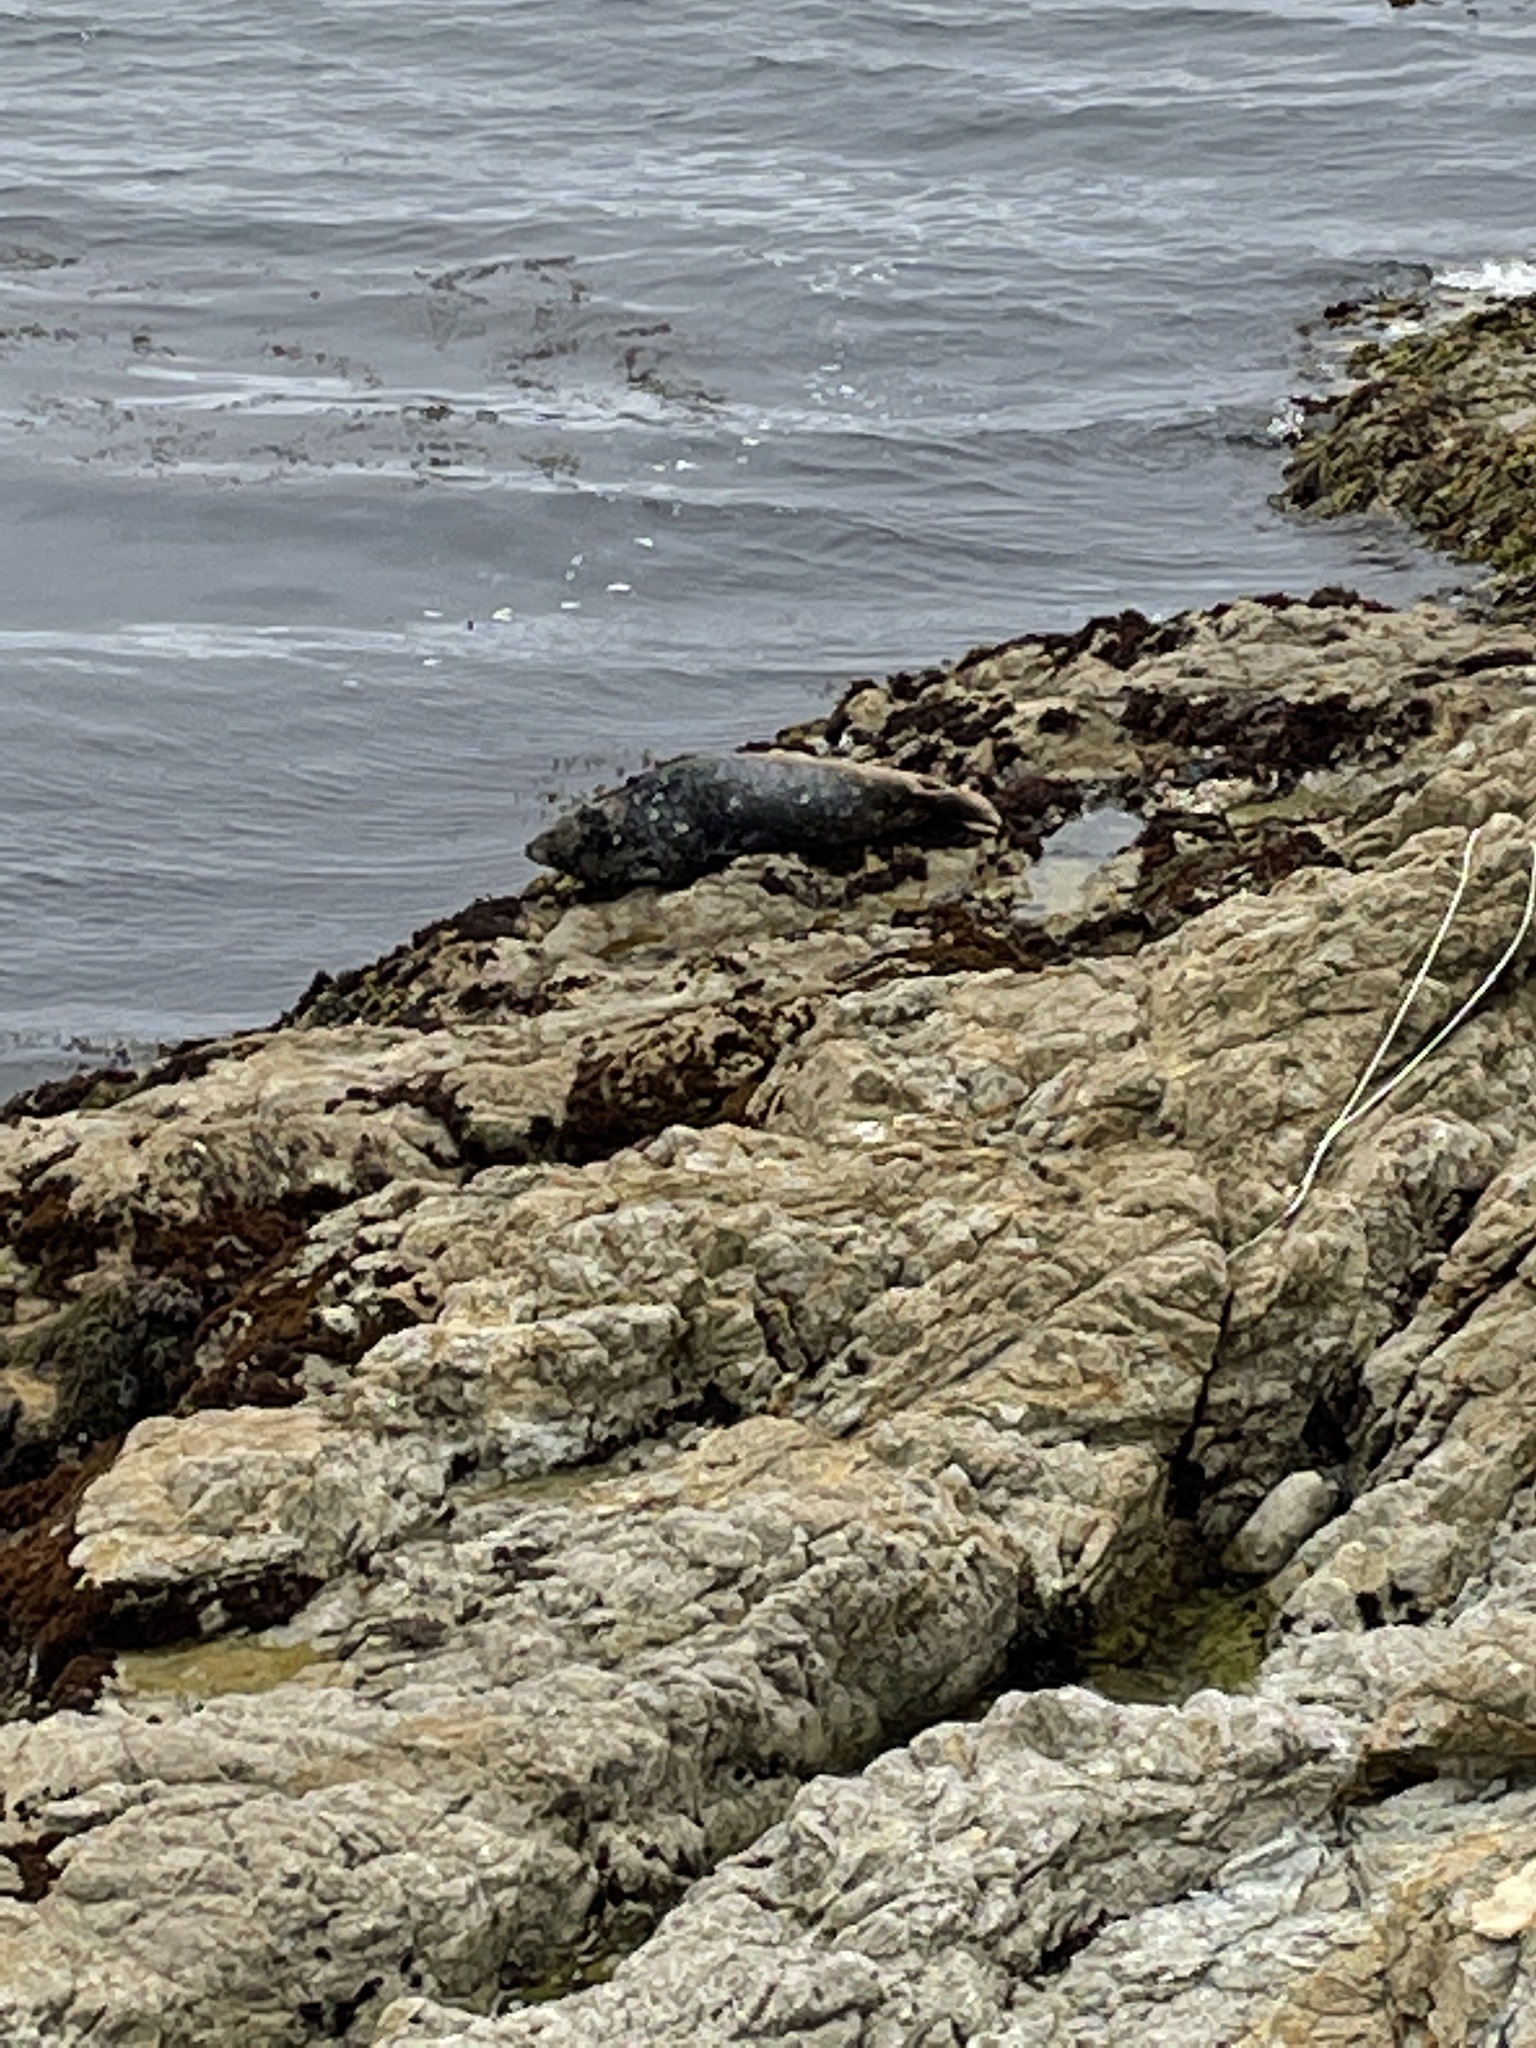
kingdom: Animalia
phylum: Chordata
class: Mammalia
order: Carnivora
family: Phocidae
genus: Phoca
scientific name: Phoca vitulina
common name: Harbor seal
